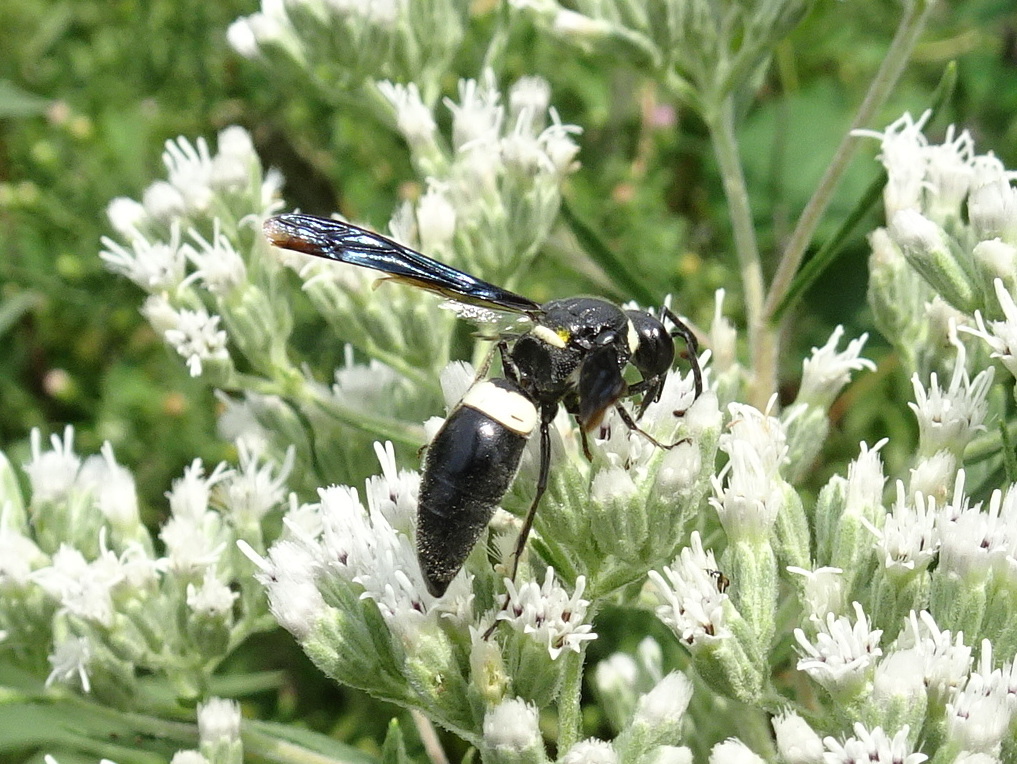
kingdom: Animalia
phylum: Arthropoda
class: Insecta
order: Hymenoptera
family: Eumenidae
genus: Monobia
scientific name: Monobia quadridens
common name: Four-toothed mason wasp
